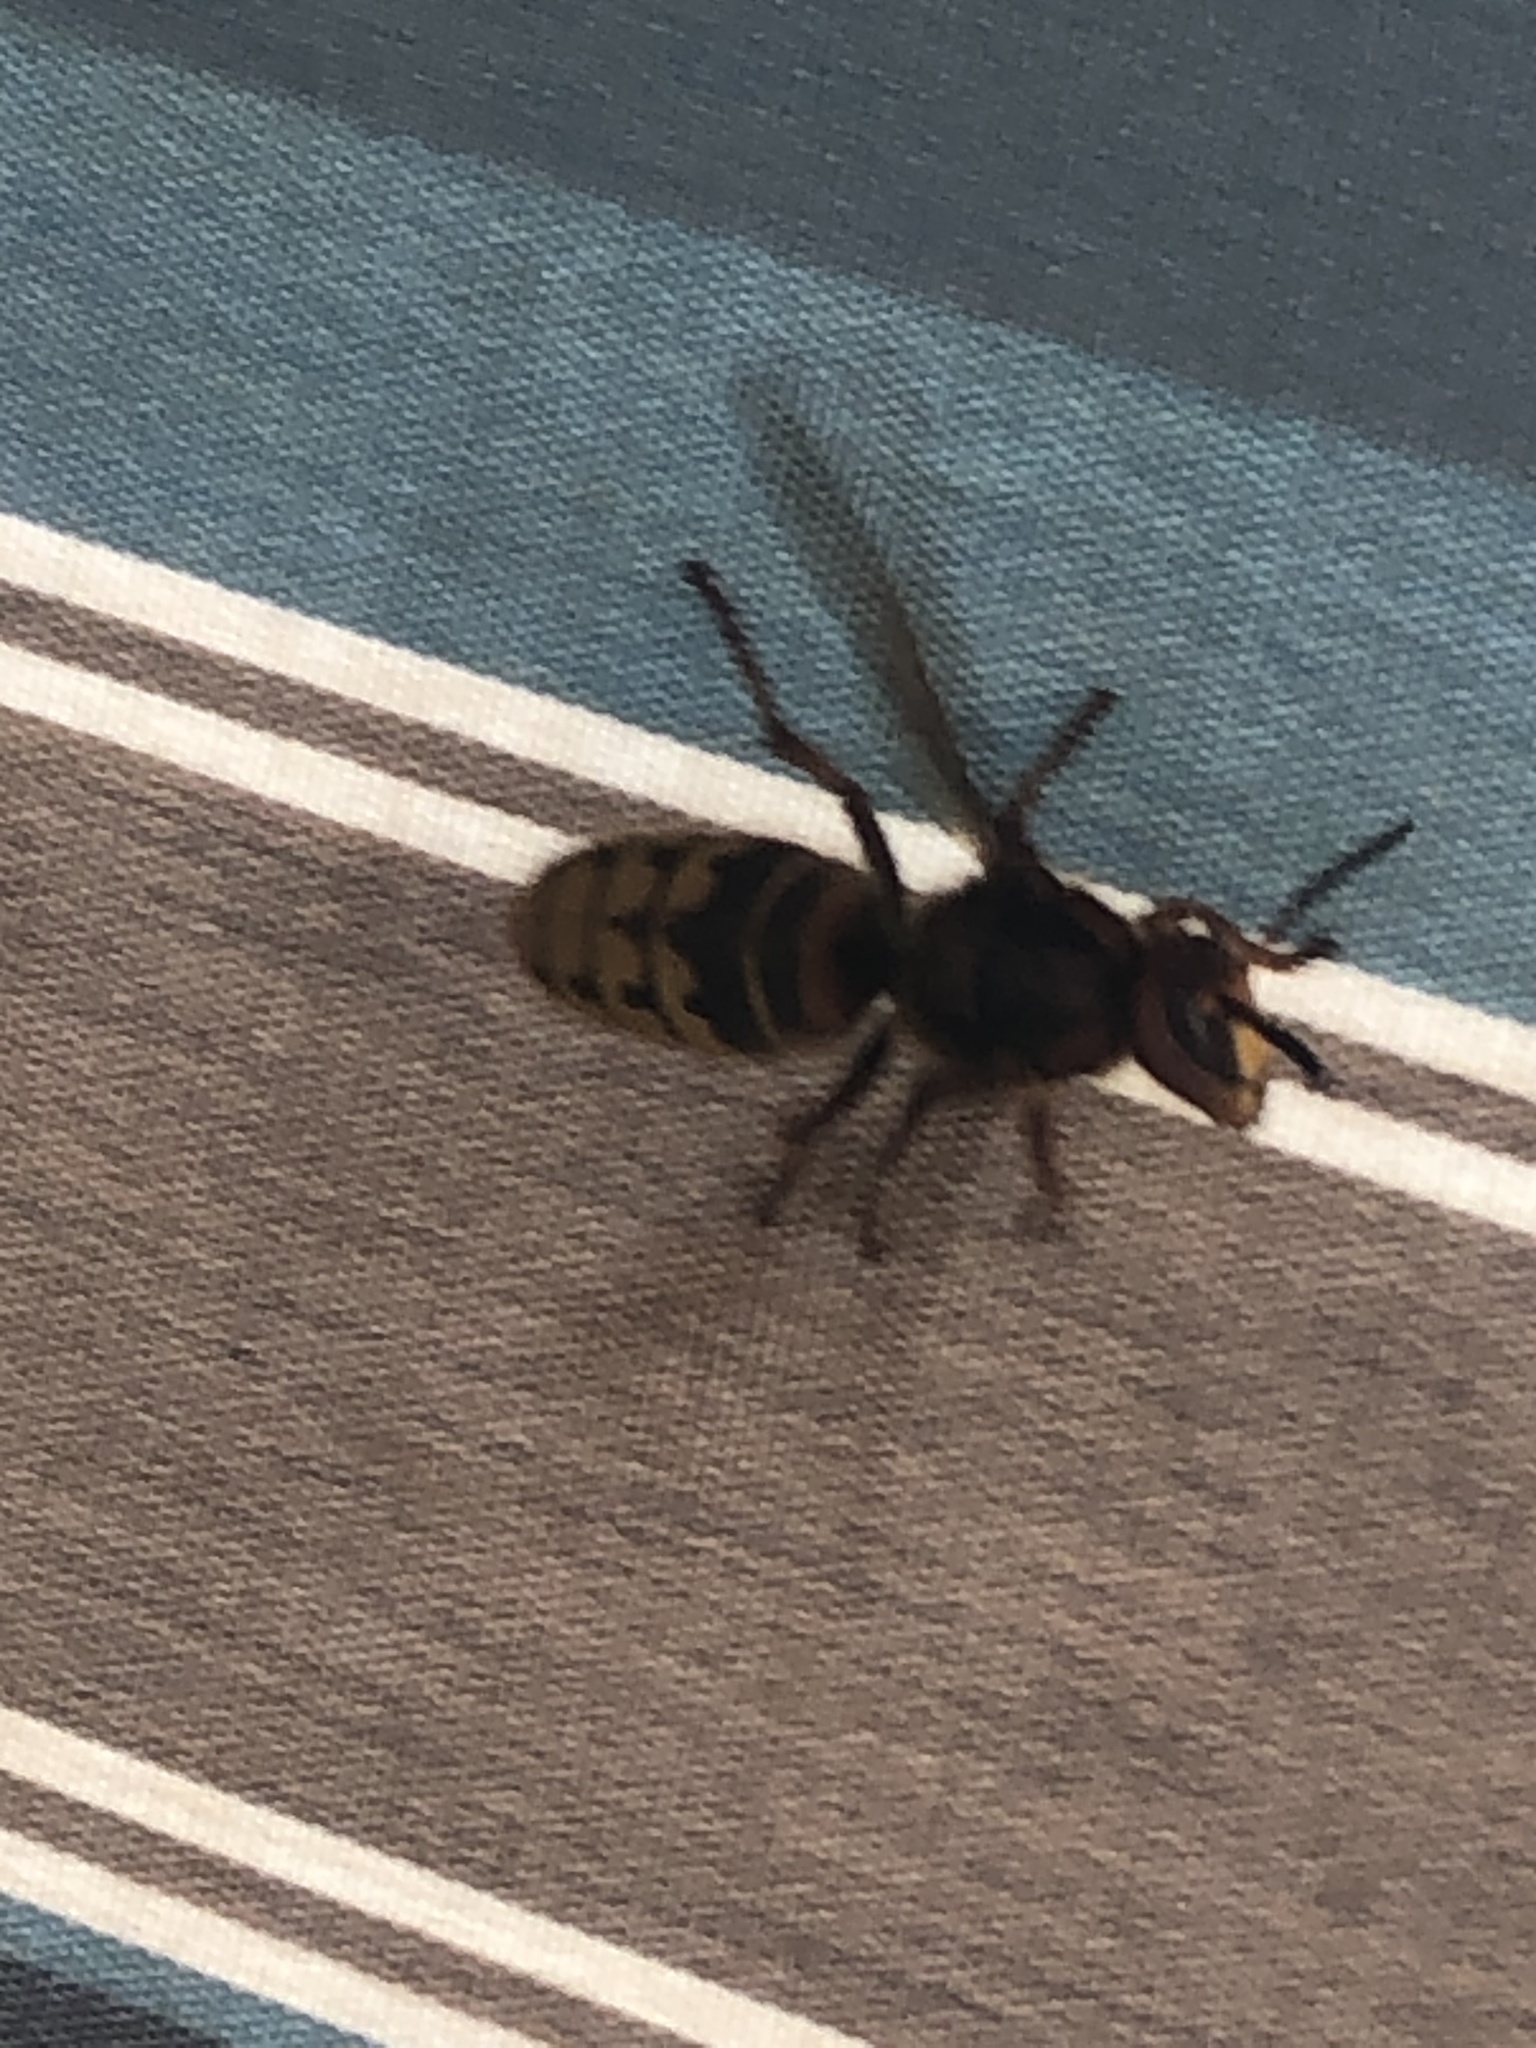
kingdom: Animalia
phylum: Arthropoda
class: Insecta
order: Hymenoptera
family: Vespidae
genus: Vespa
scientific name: Vespa crabro
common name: Hornet
